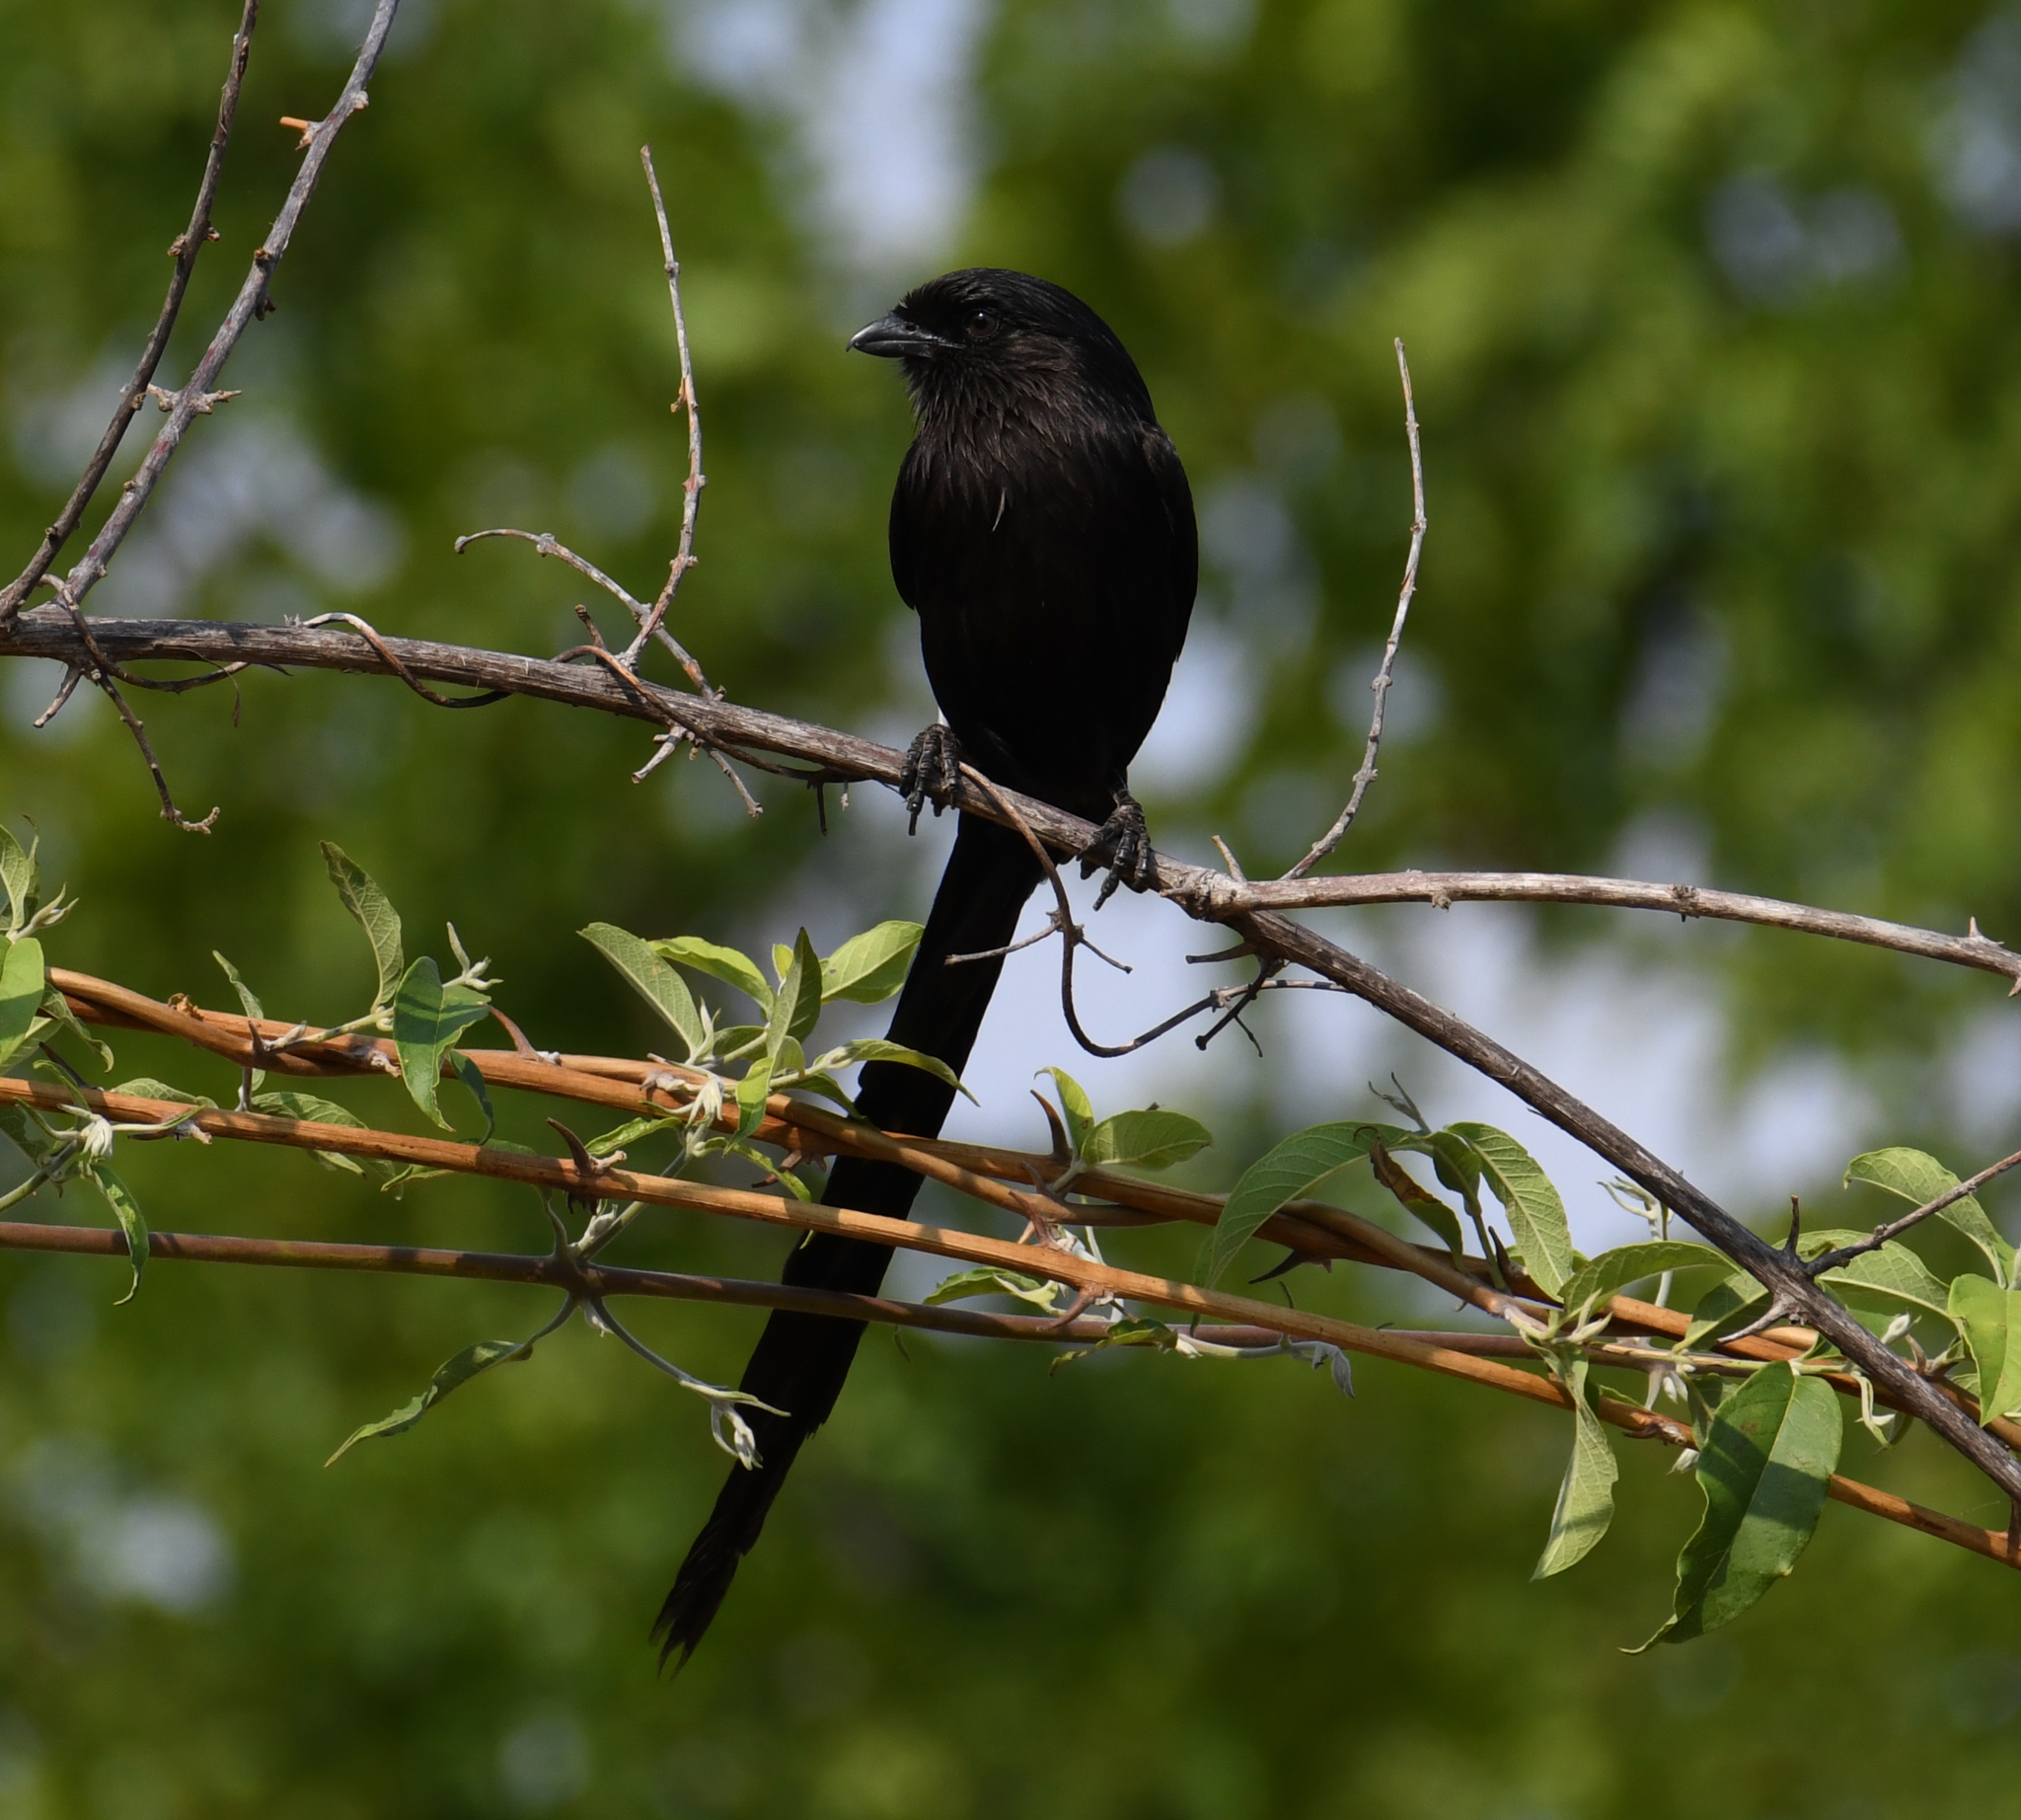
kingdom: Animalia
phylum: Chordata
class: Aves
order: Passeriformes
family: Laniidae
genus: Urolestes
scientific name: Urolestes melanoleucus
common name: Magpie shrike
